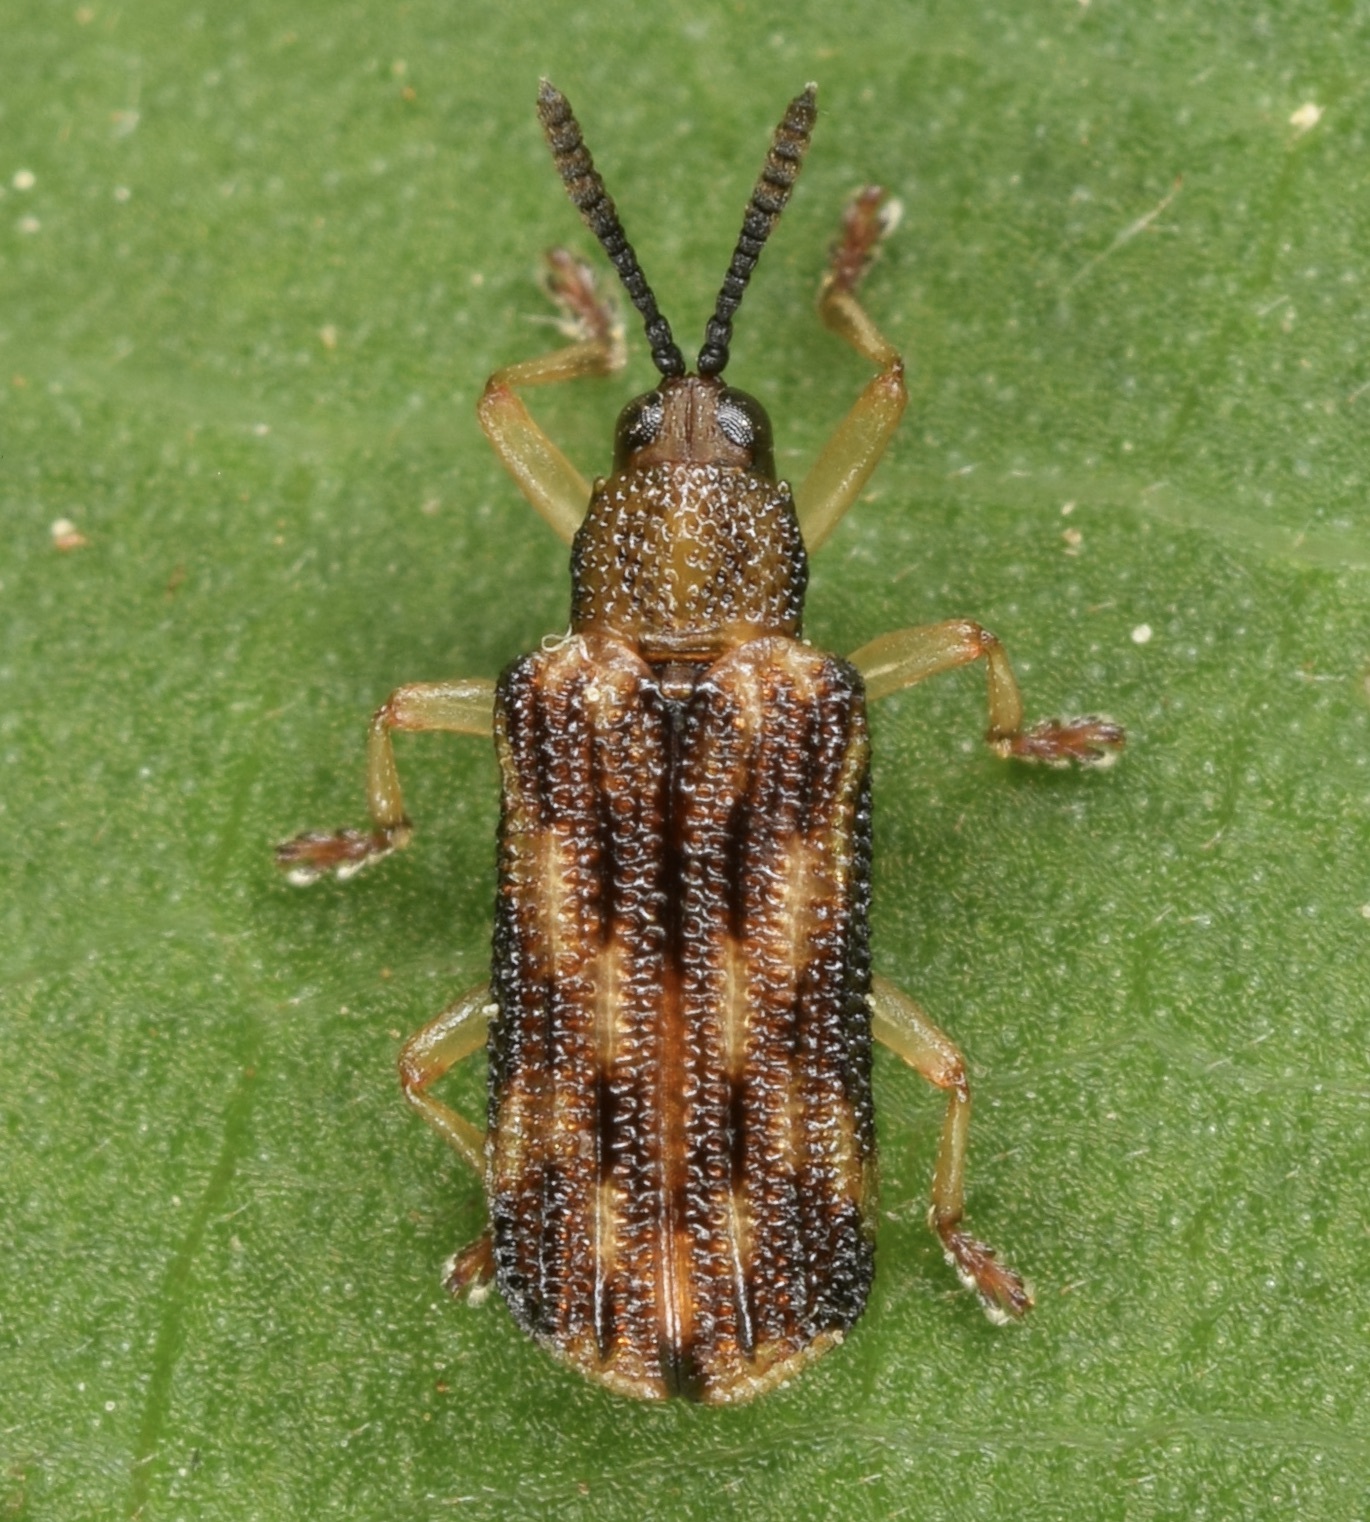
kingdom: Animalia
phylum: Arthropoda
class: Insecta
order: Coleoptera
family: Chrysomelidae
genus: Sumitrosis
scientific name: Sumitrosis inaequalis
